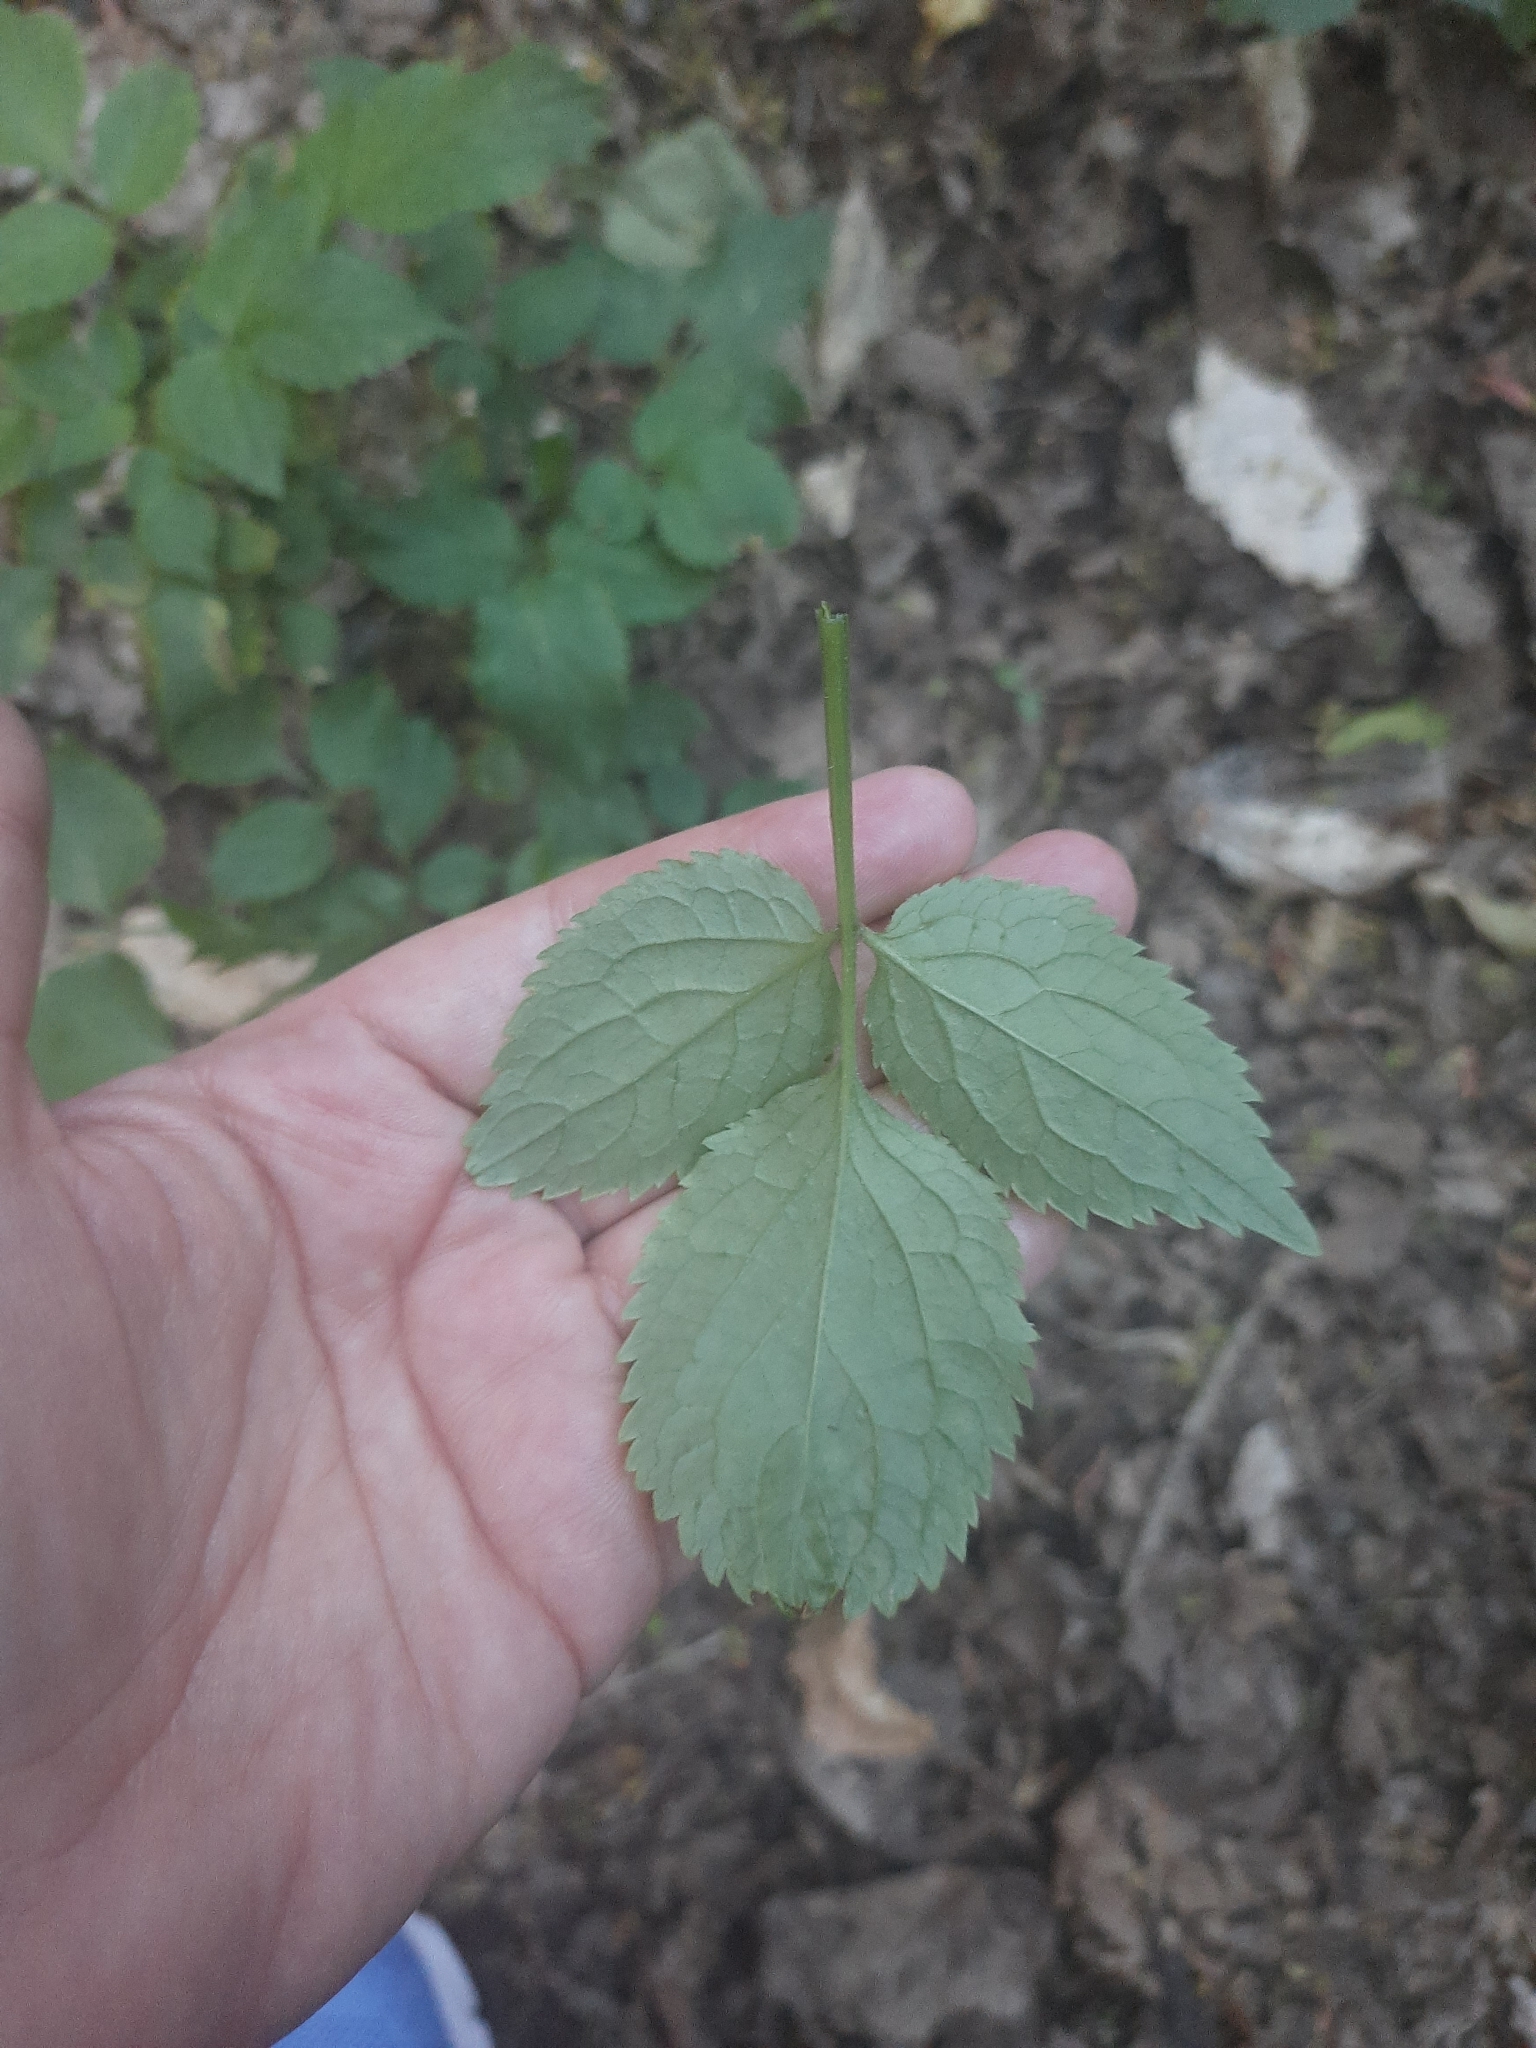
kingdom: Plantae
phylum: Tracheophyta
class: Magnoliopsida
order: Dipsacales
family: Viburnaceae
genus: Sambucus
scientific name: Sambucus nigra
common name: Elder
